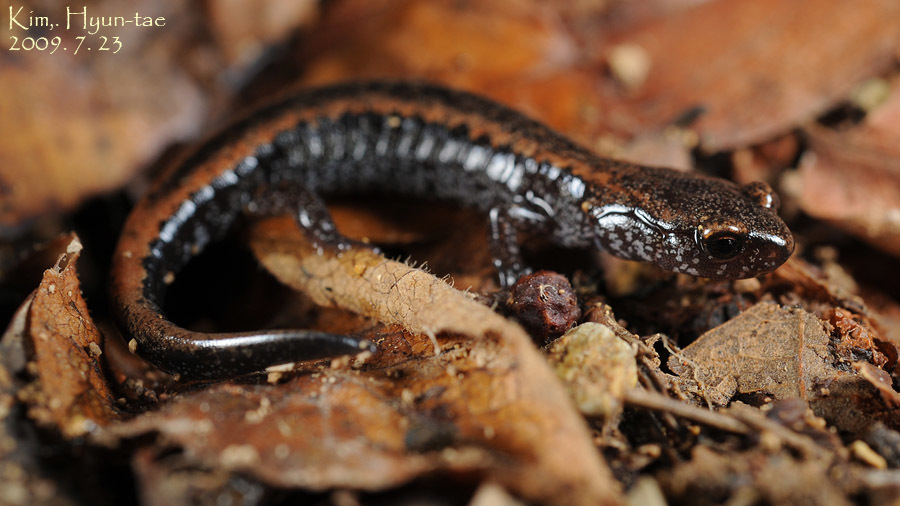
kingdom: Animalia
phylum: Chordata
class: Amphibia
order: Caudata
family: Plethodontidae
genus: Karsenia
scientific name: Karsenia koreana
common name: Korean crevice salamander
